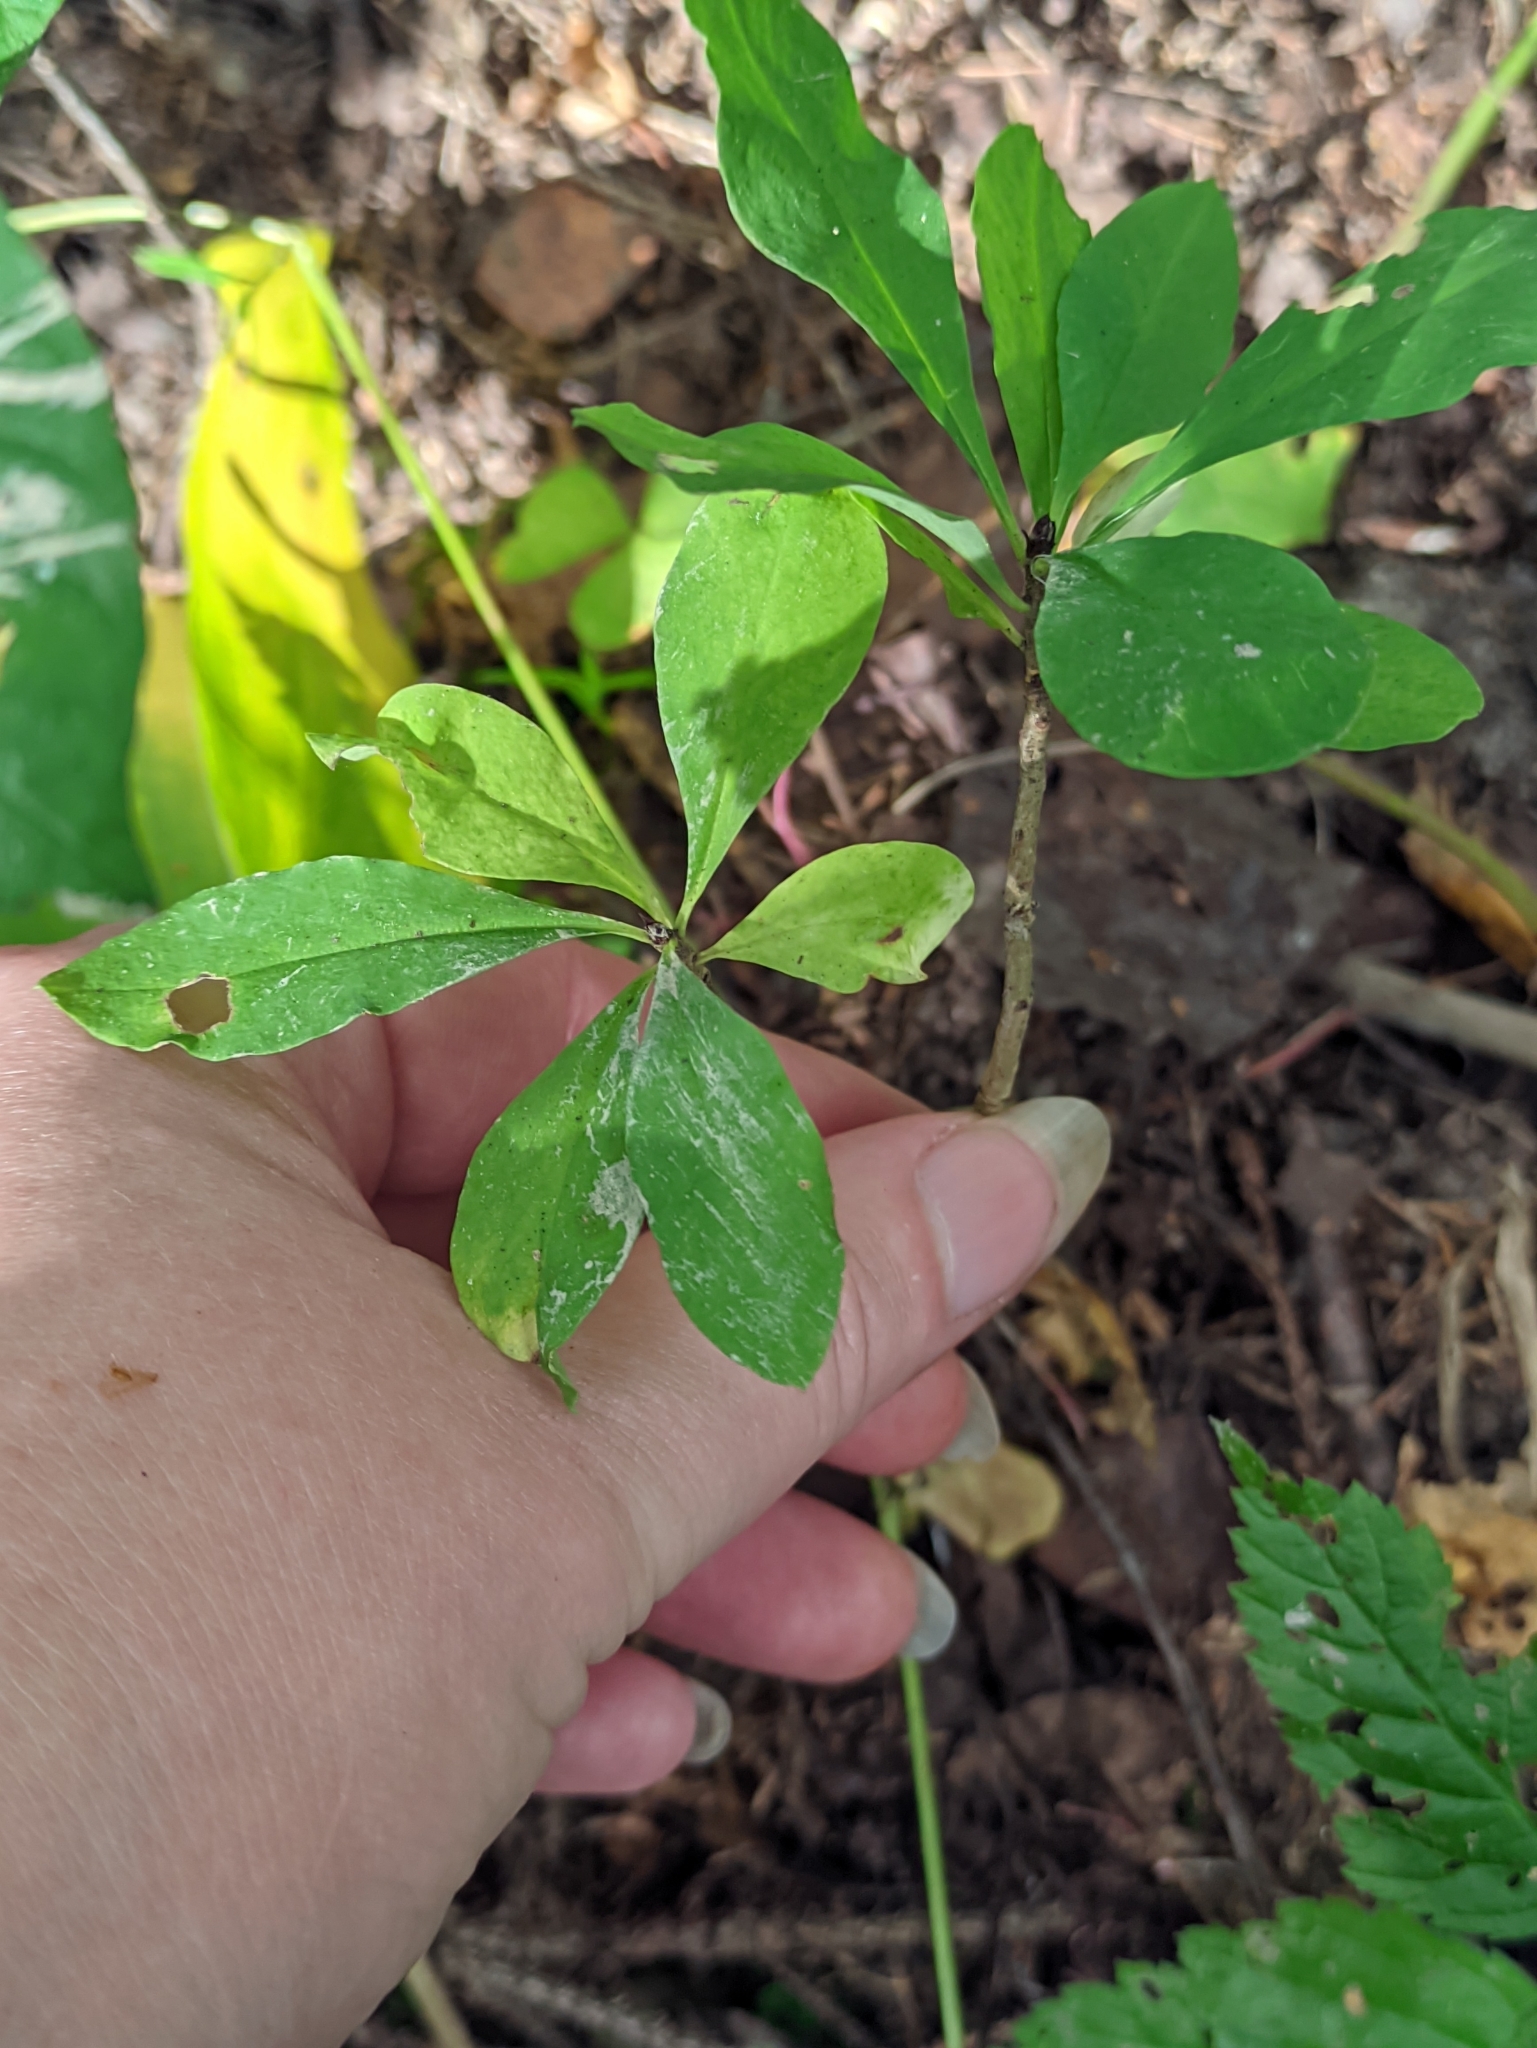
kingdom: Plantae
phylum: Tracheophyta
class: Magnoliopsida
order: Malvales
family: Thymelaeaceae
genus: Daphne
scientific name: Daphne mezereum
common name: Mezereon
